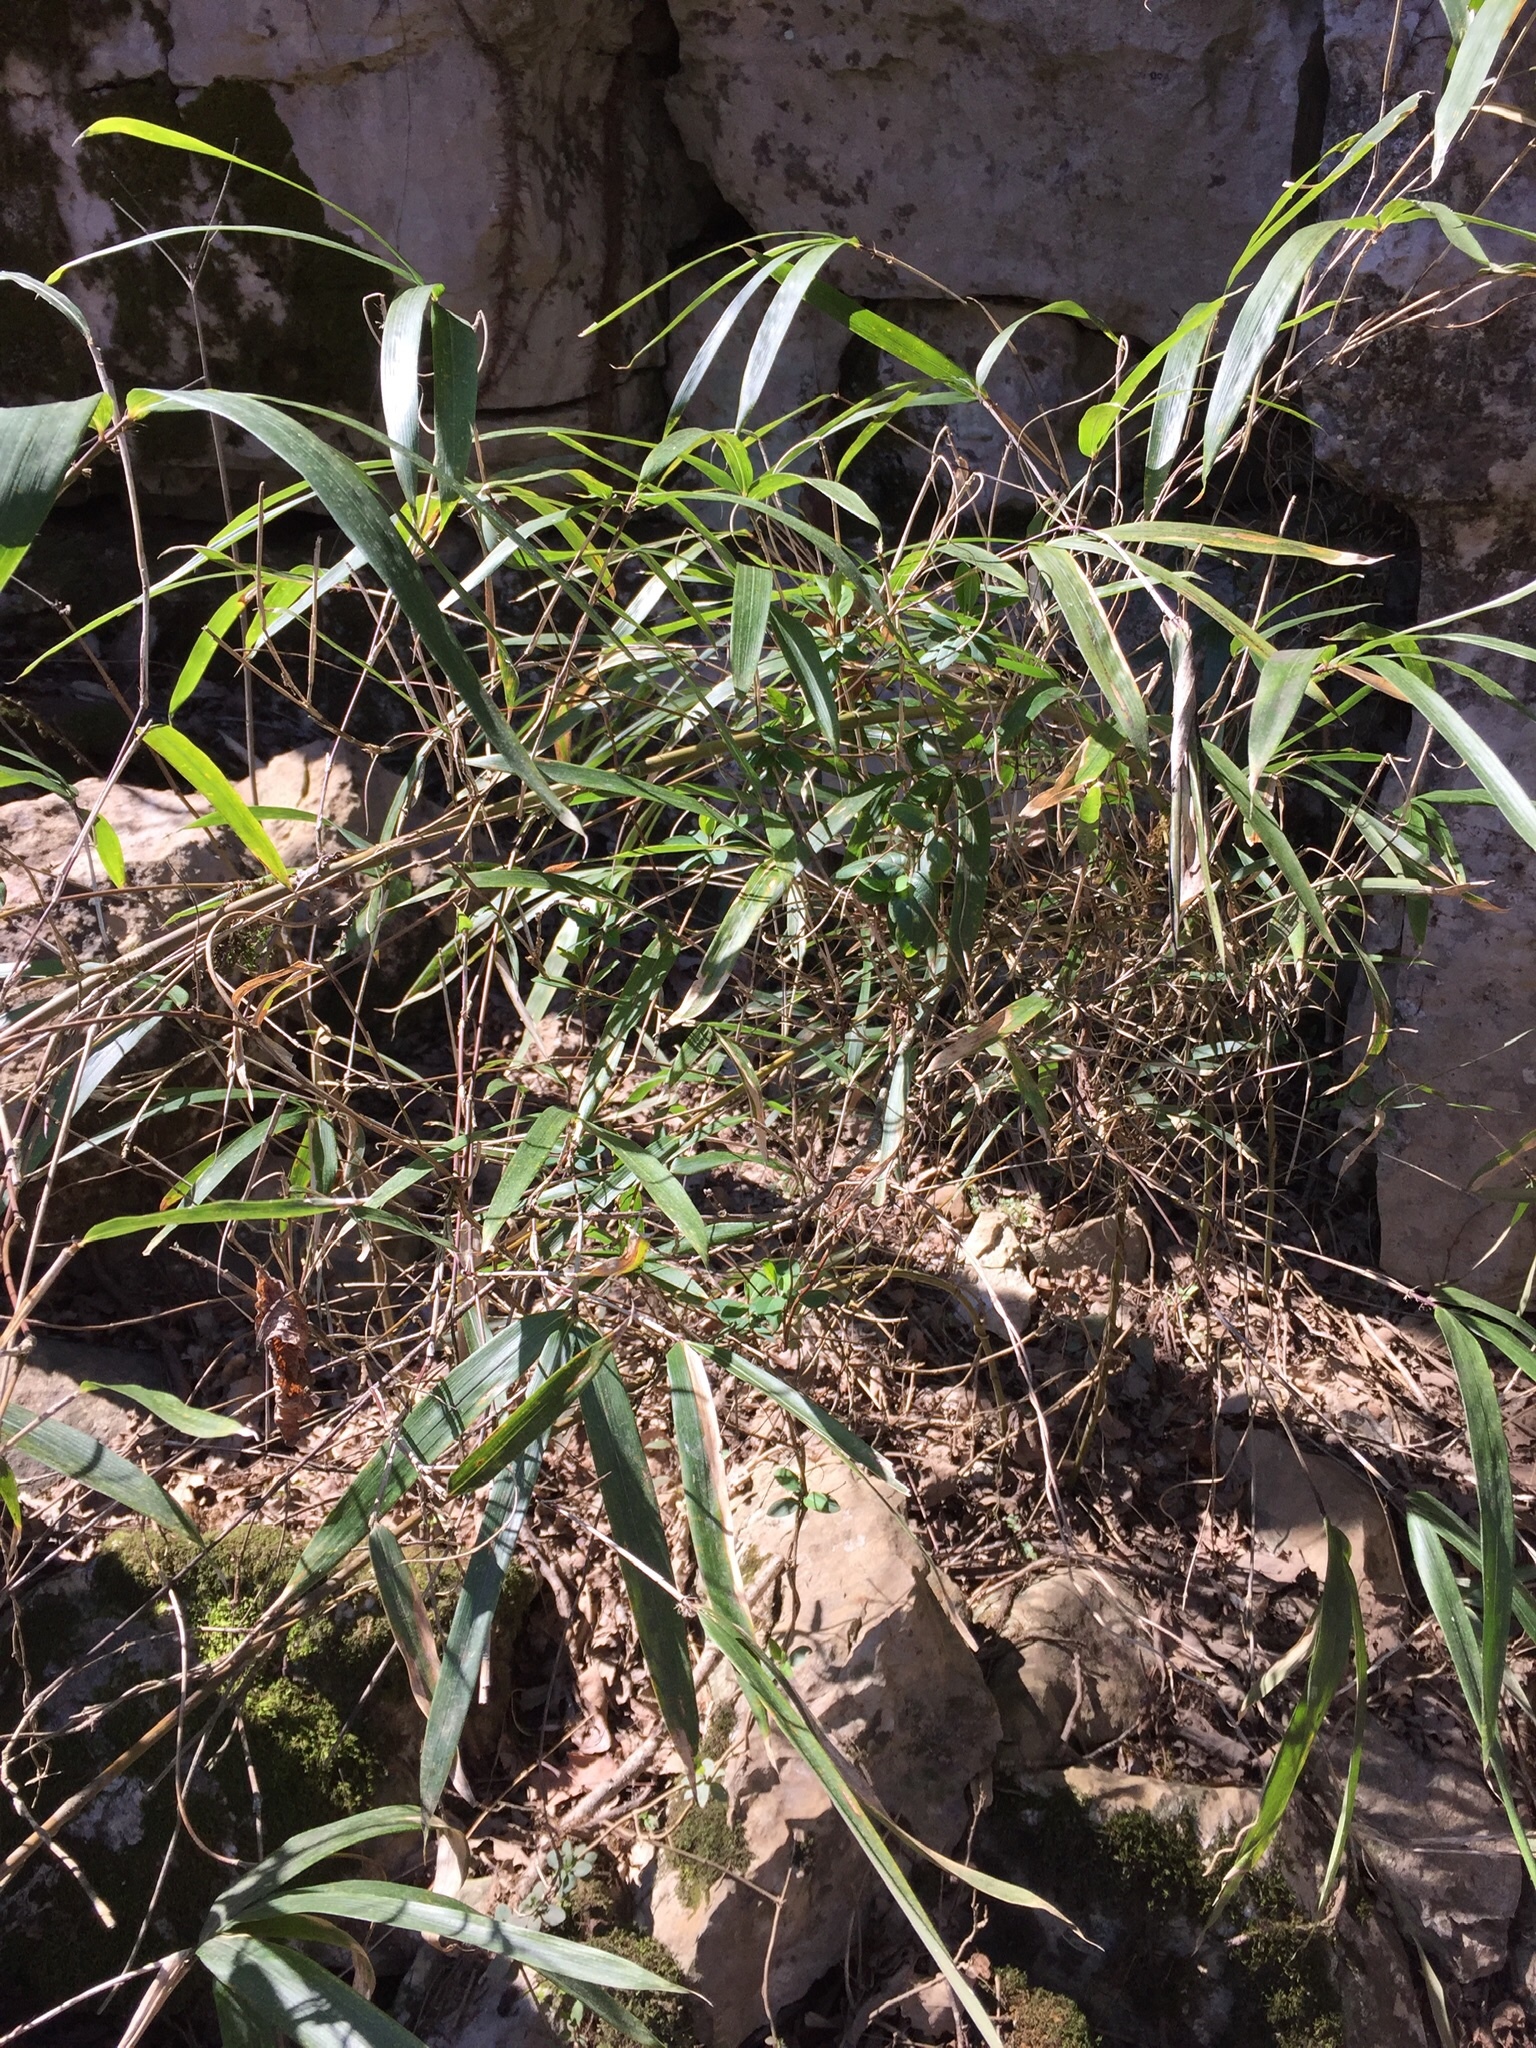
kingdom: Plantae
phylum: Tracheophyta
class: Liliopsida
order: Poales
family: Poaceae
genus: Arundinaria
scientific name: Arundinaria gigantea
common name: Giant cane
